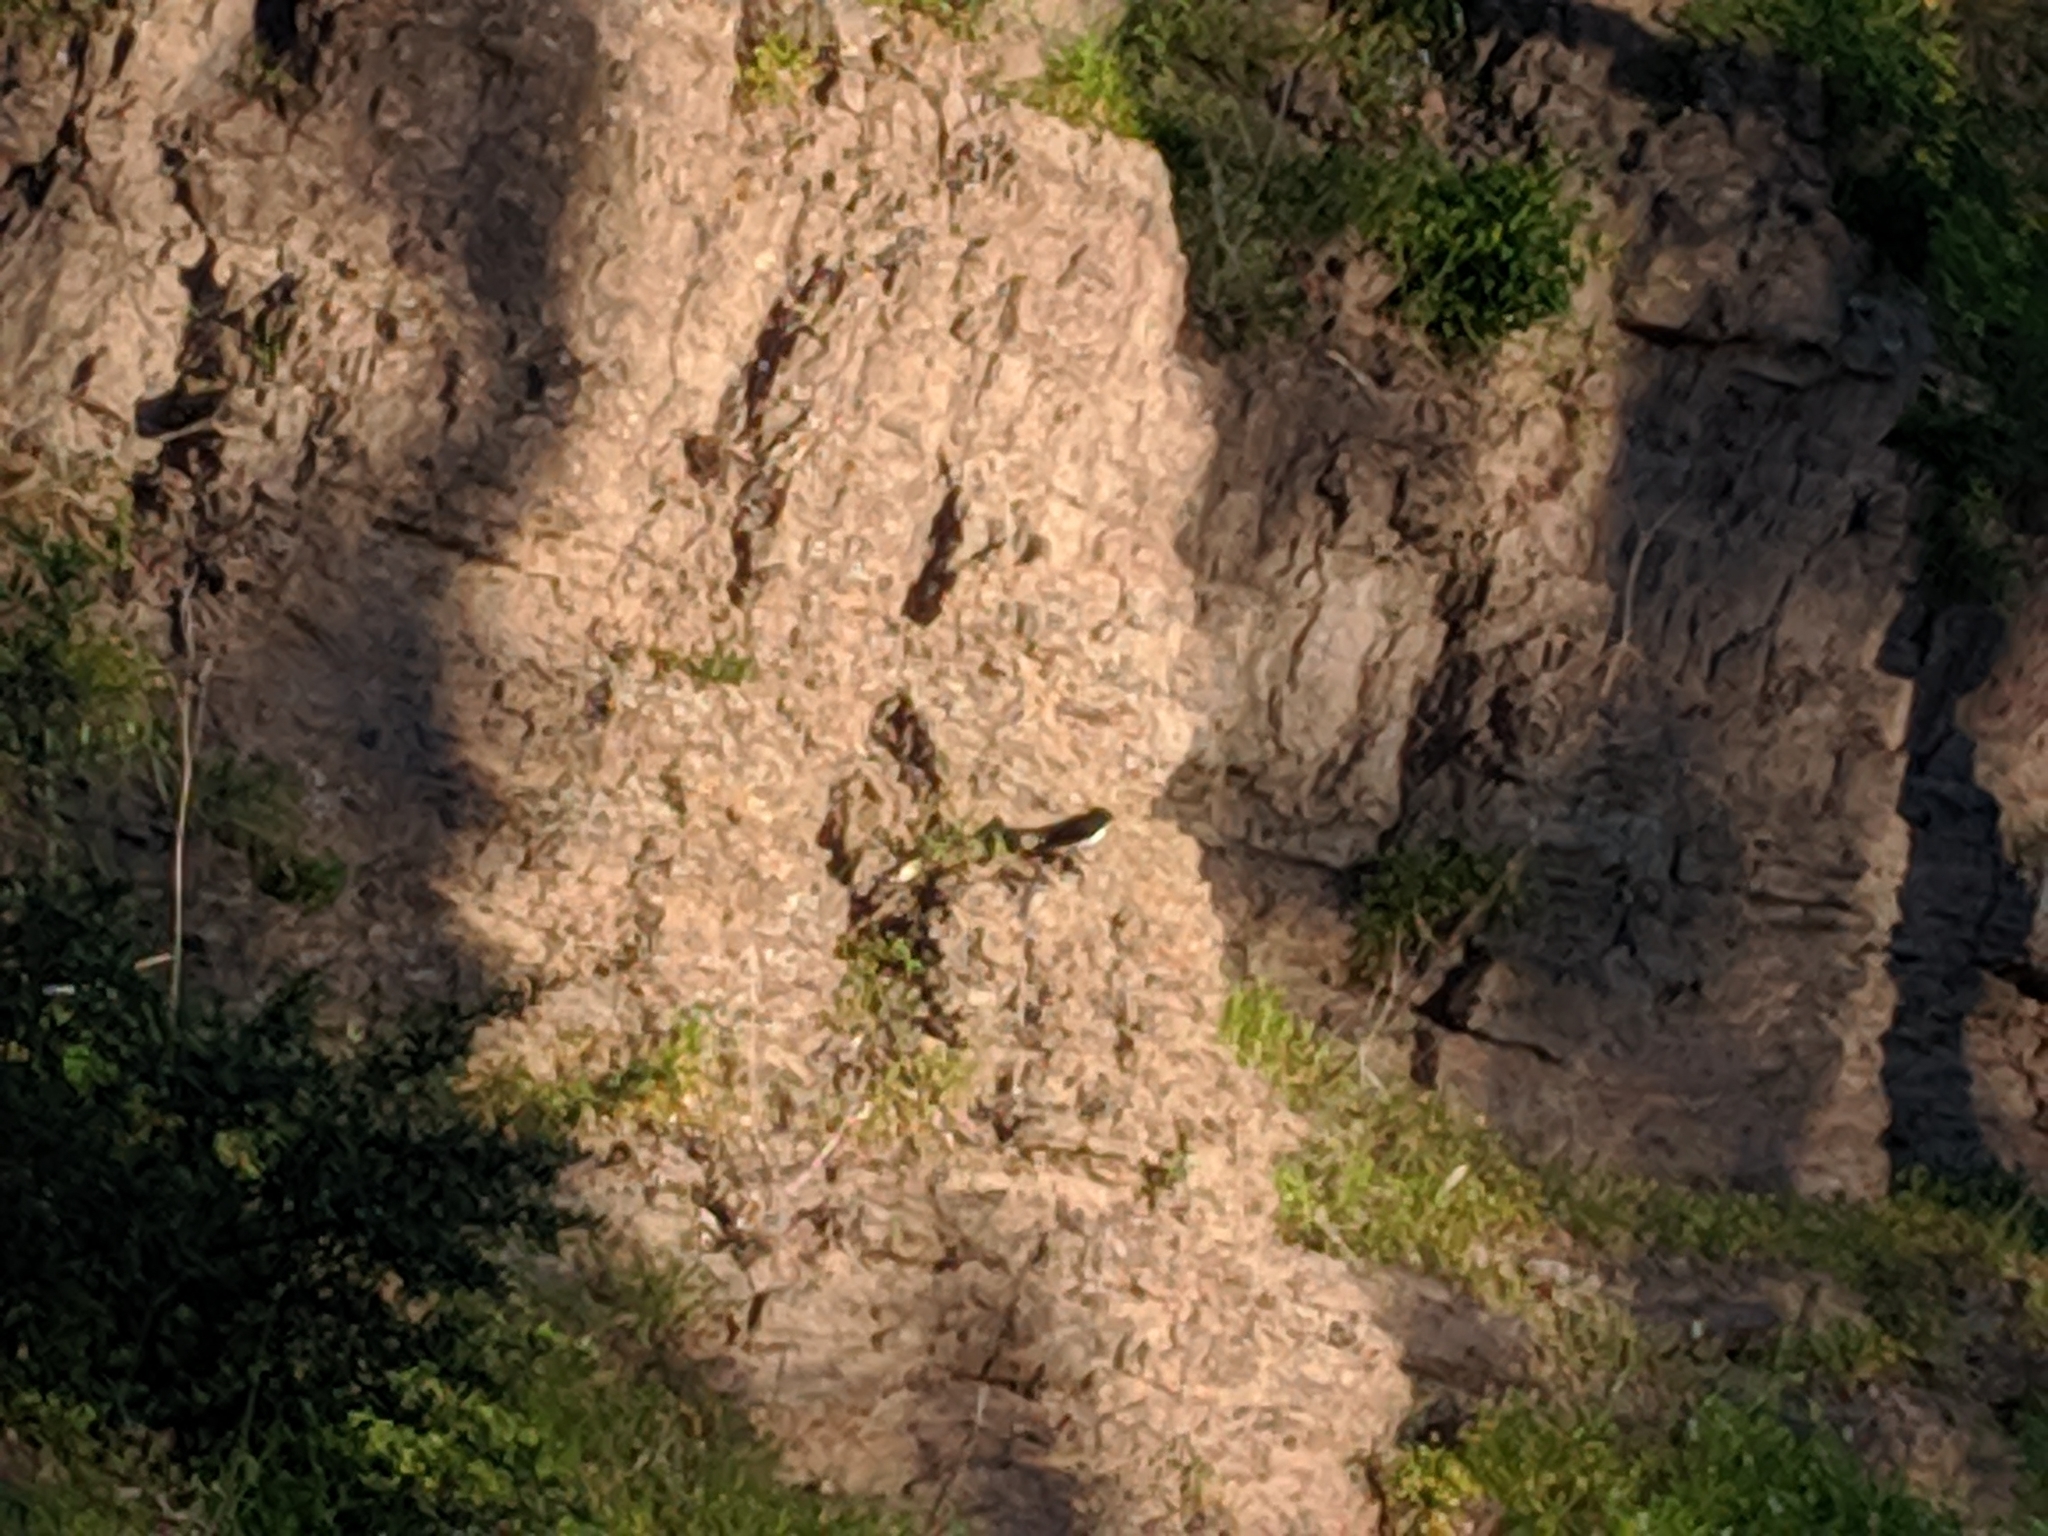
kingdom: Animalia
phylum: Chordata
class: Aves
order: Passeriformes
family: Rhipiduridae
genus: Rhipidura
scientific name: Rhipidura leucophrys
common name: Willie wagtail
